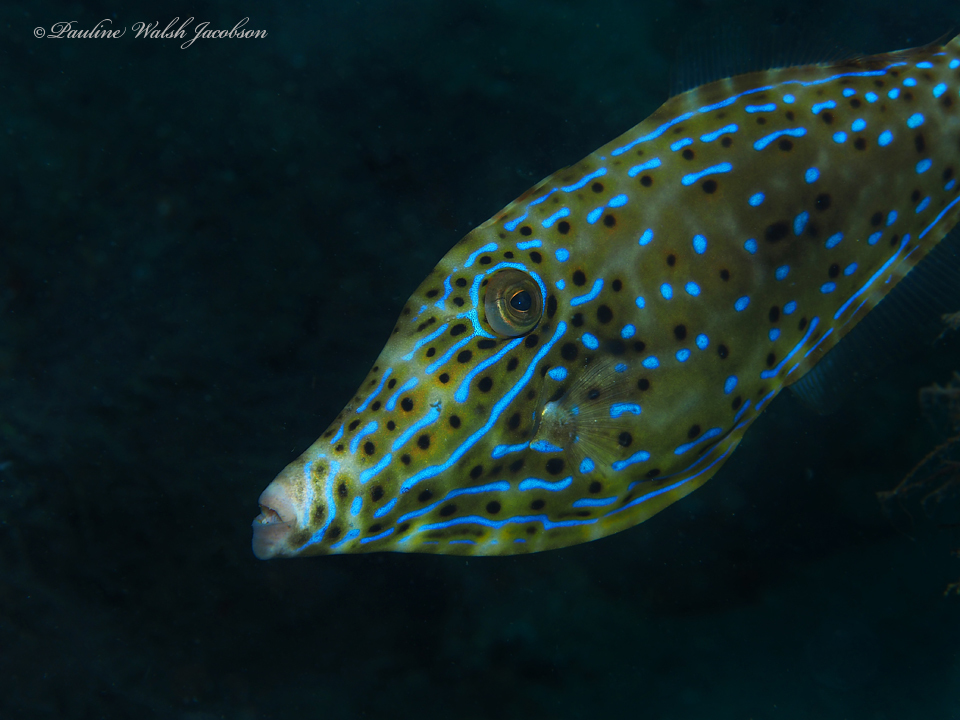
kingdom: Animalia
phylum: Chordata
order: Tetraodontiformes
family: Monacanthidae
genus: Aluterus
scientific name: Aluterus scriptus
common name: Scribbled leatherjacket filefish
